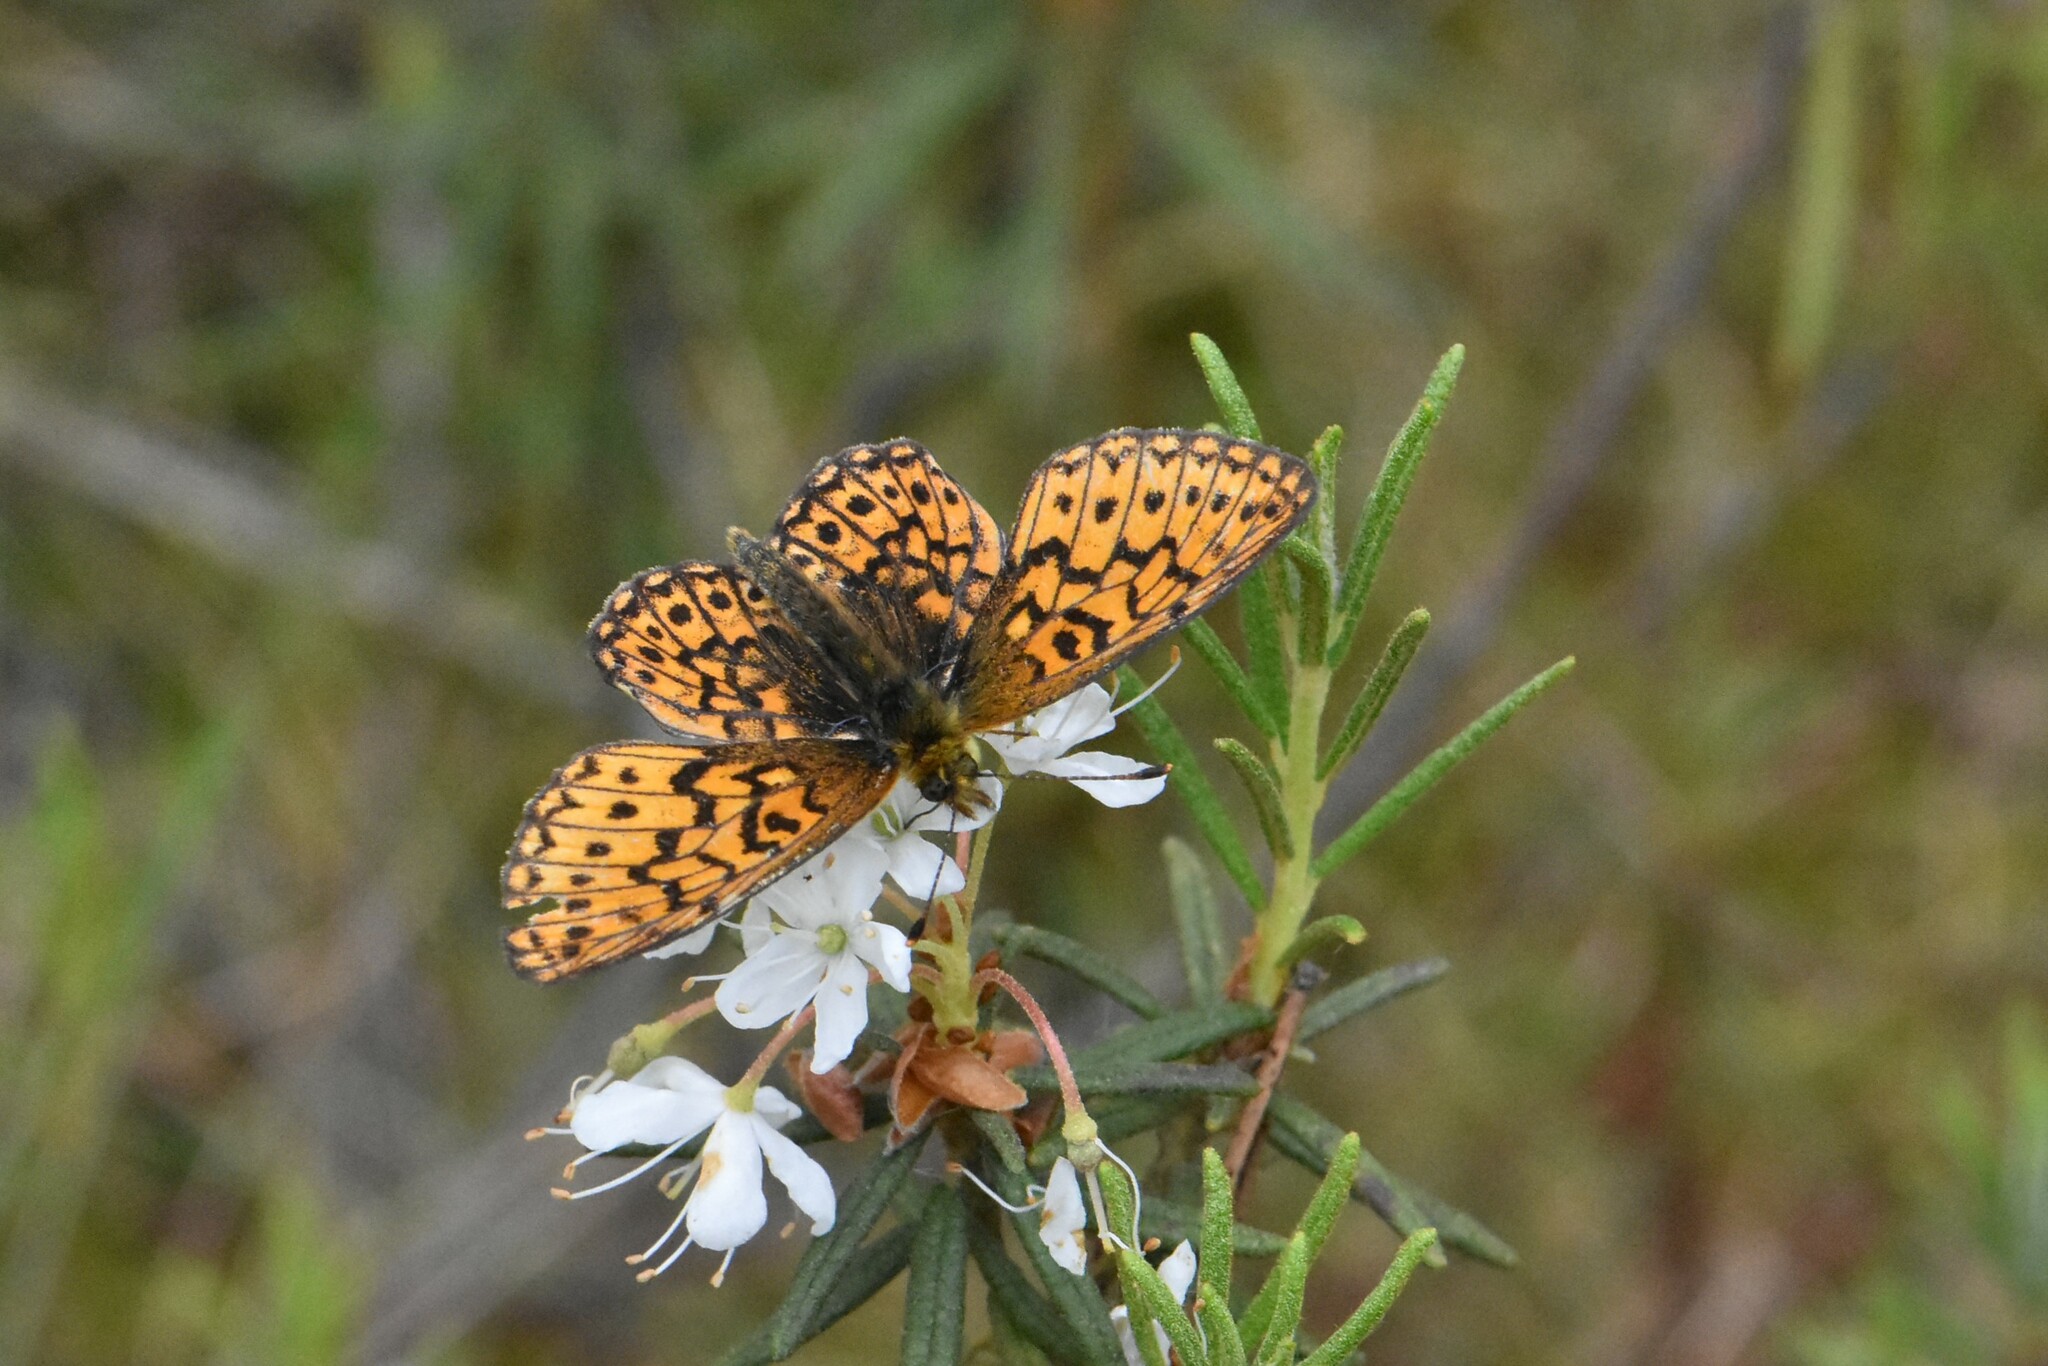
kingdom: Animalia
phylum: Arthropoda
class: Insecta
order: Lepidoptera
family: Nymphalidae
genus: Boloria
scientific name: Boloria eunomia
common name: Bog fritillary
